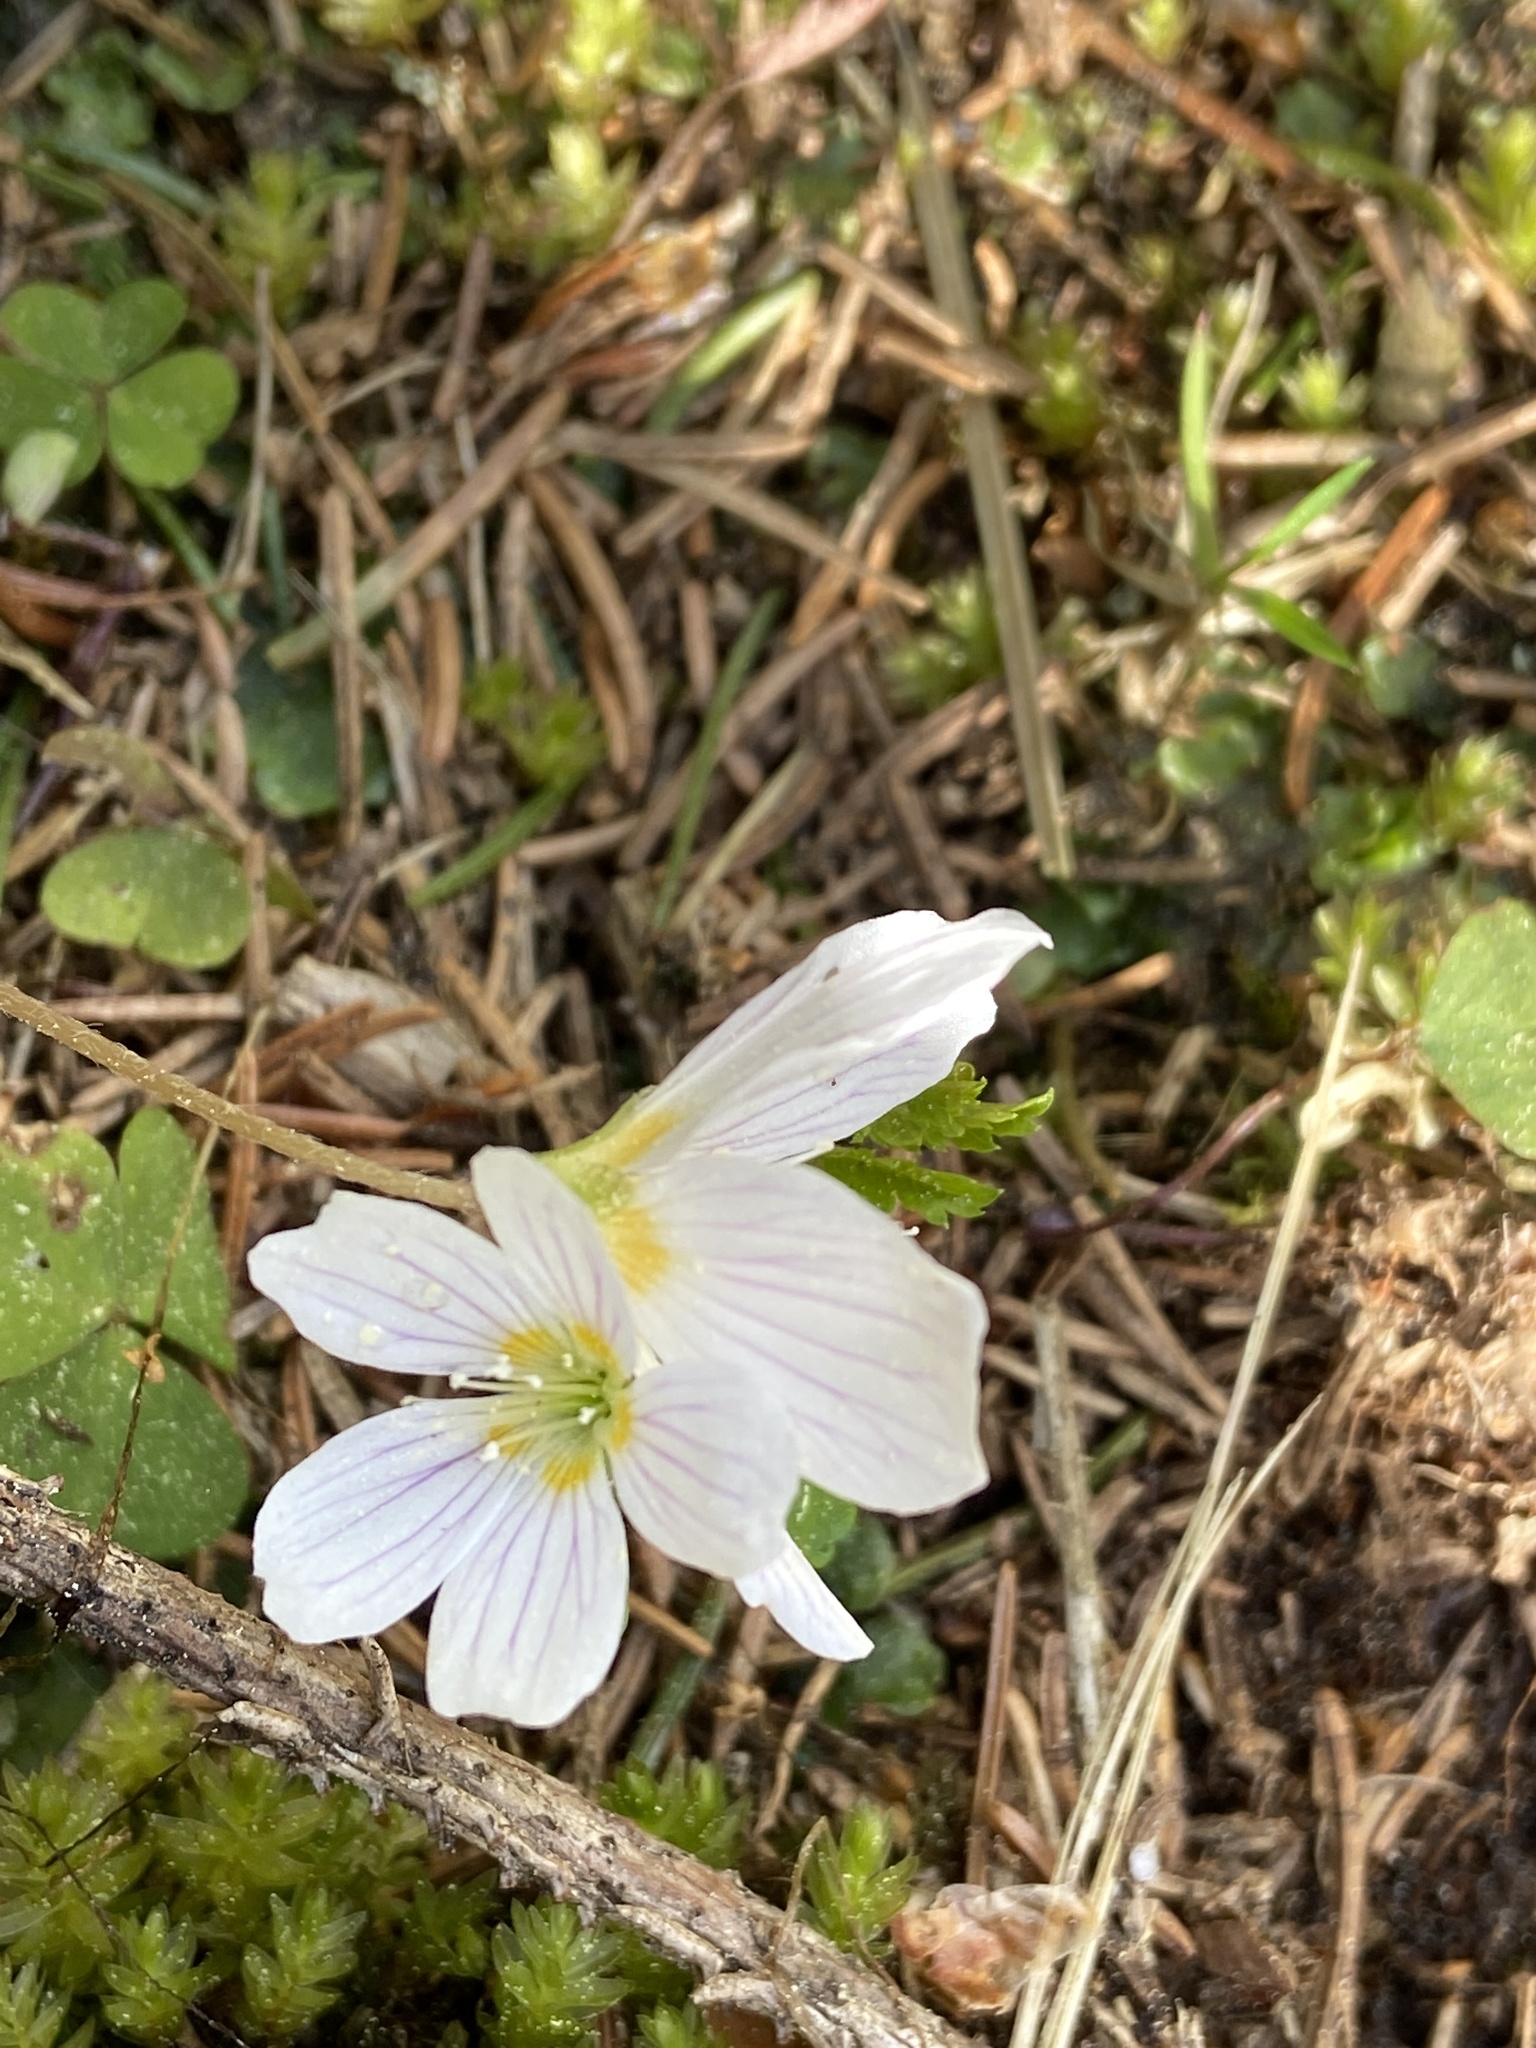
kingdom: Plantae
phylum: Tracheophyta
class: Magnoliopsida
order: Oxalidales
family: Oxalidaceae
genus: Oxalis
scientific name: Oxalis acetosella
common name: Wood-sorrel
